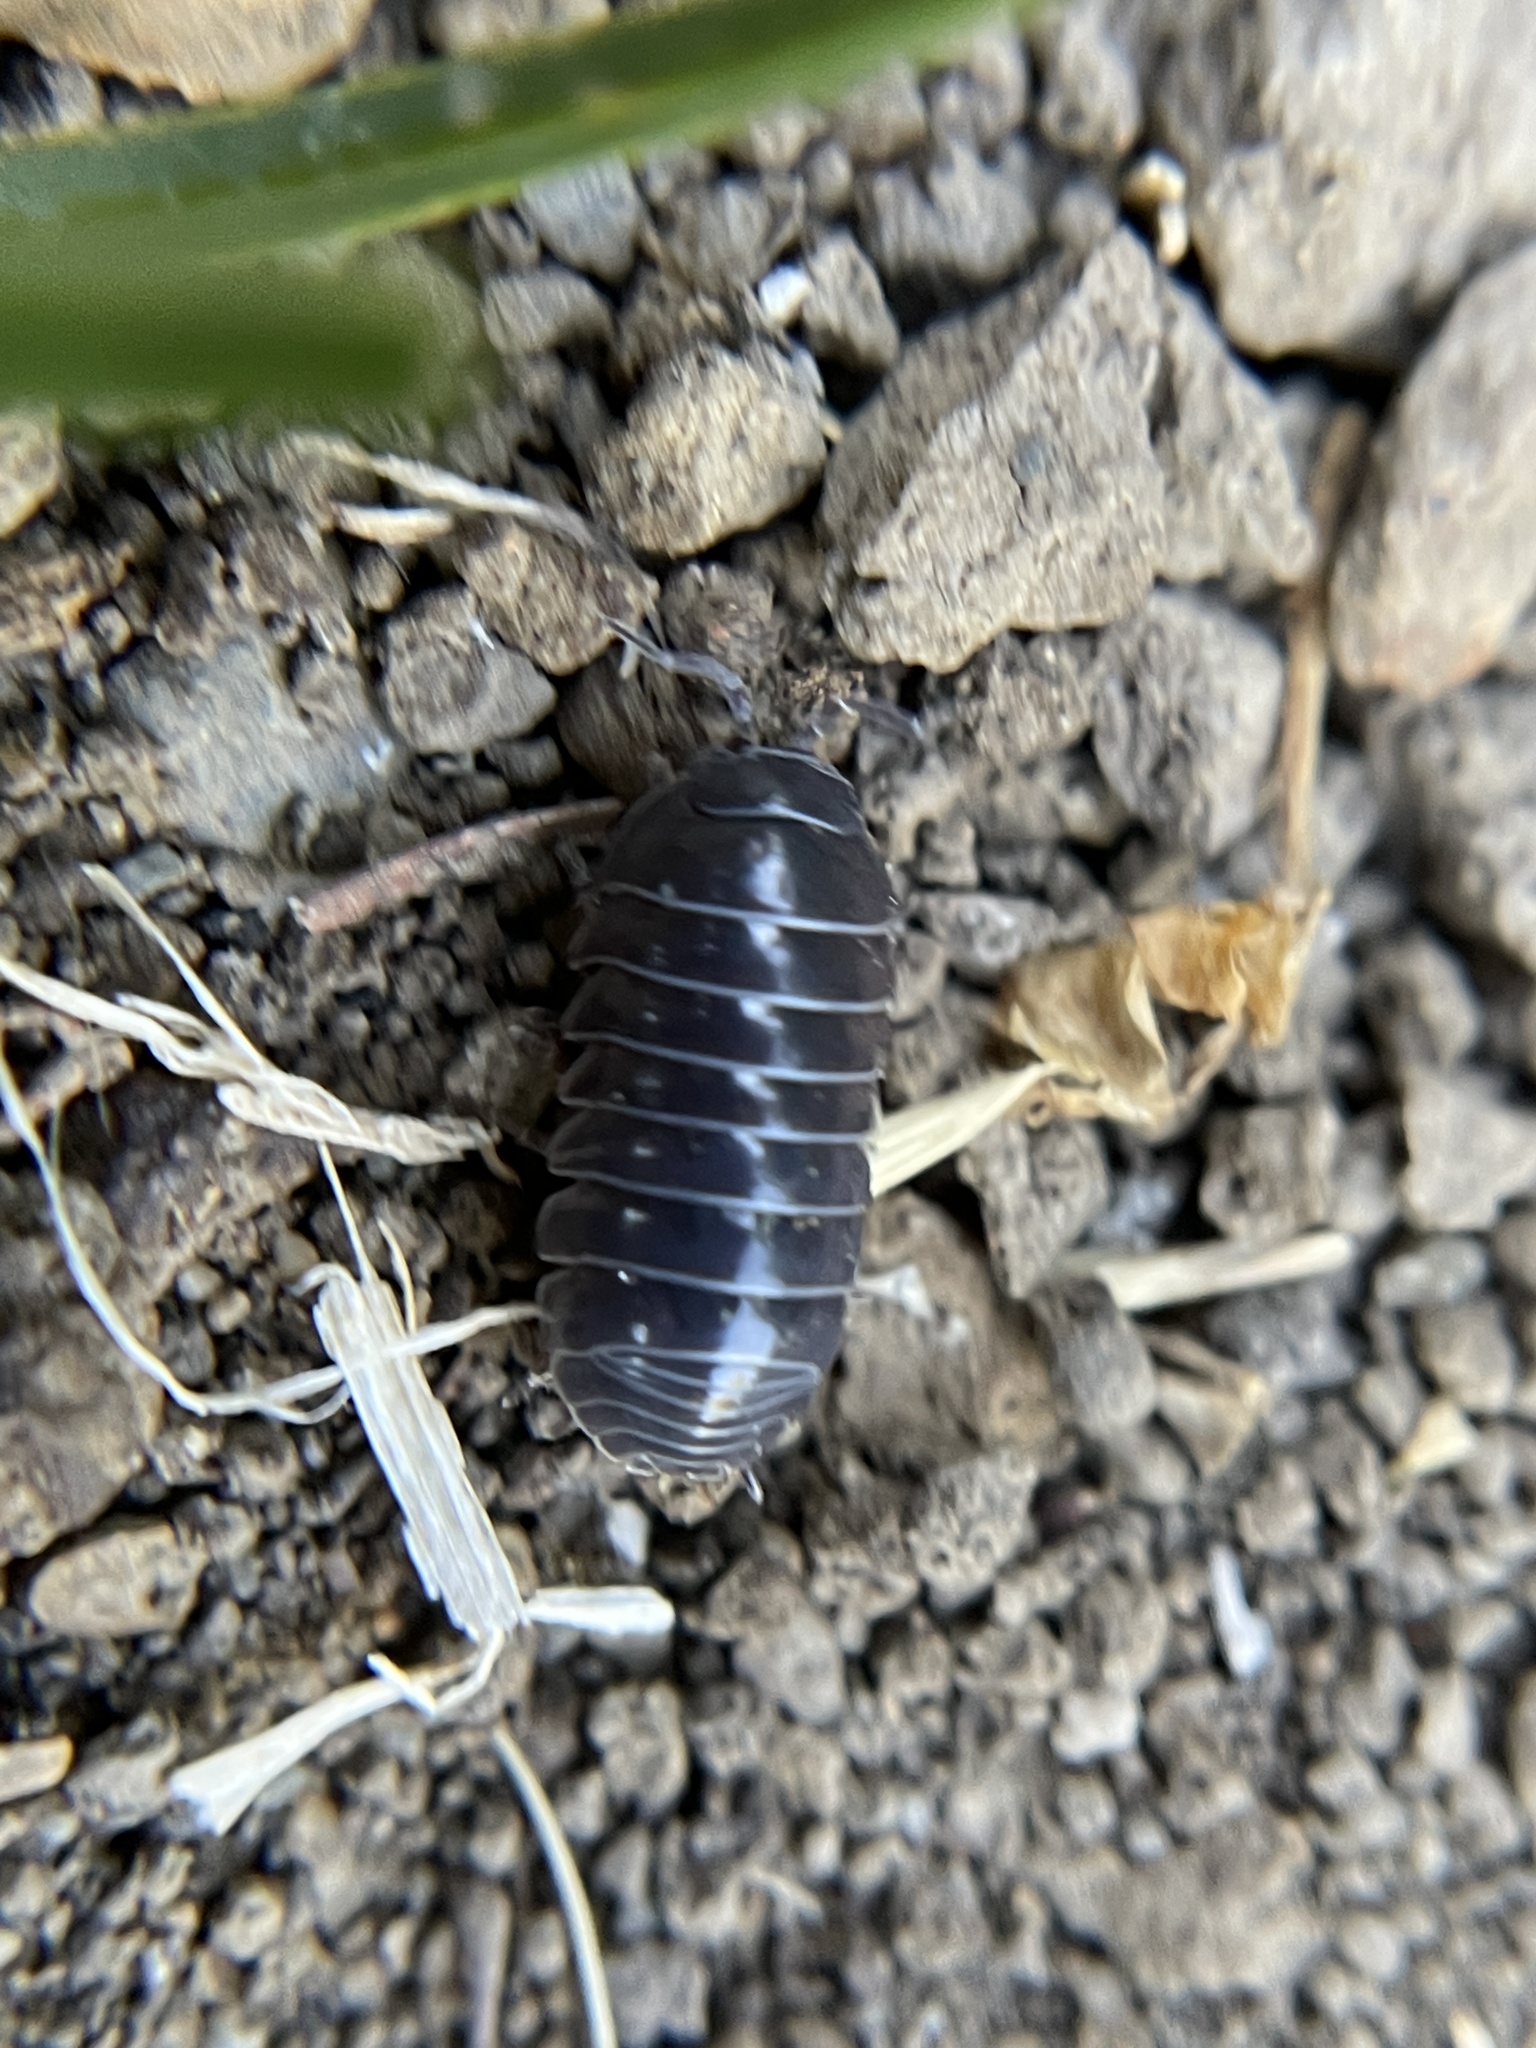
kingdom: Animalia
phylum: Arthropoda
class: Malacostraca
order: Isopoda
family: Armadillidiidae
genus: Armadillidium
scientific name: Armadillidium vulgare
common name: Common pill woodlouse
